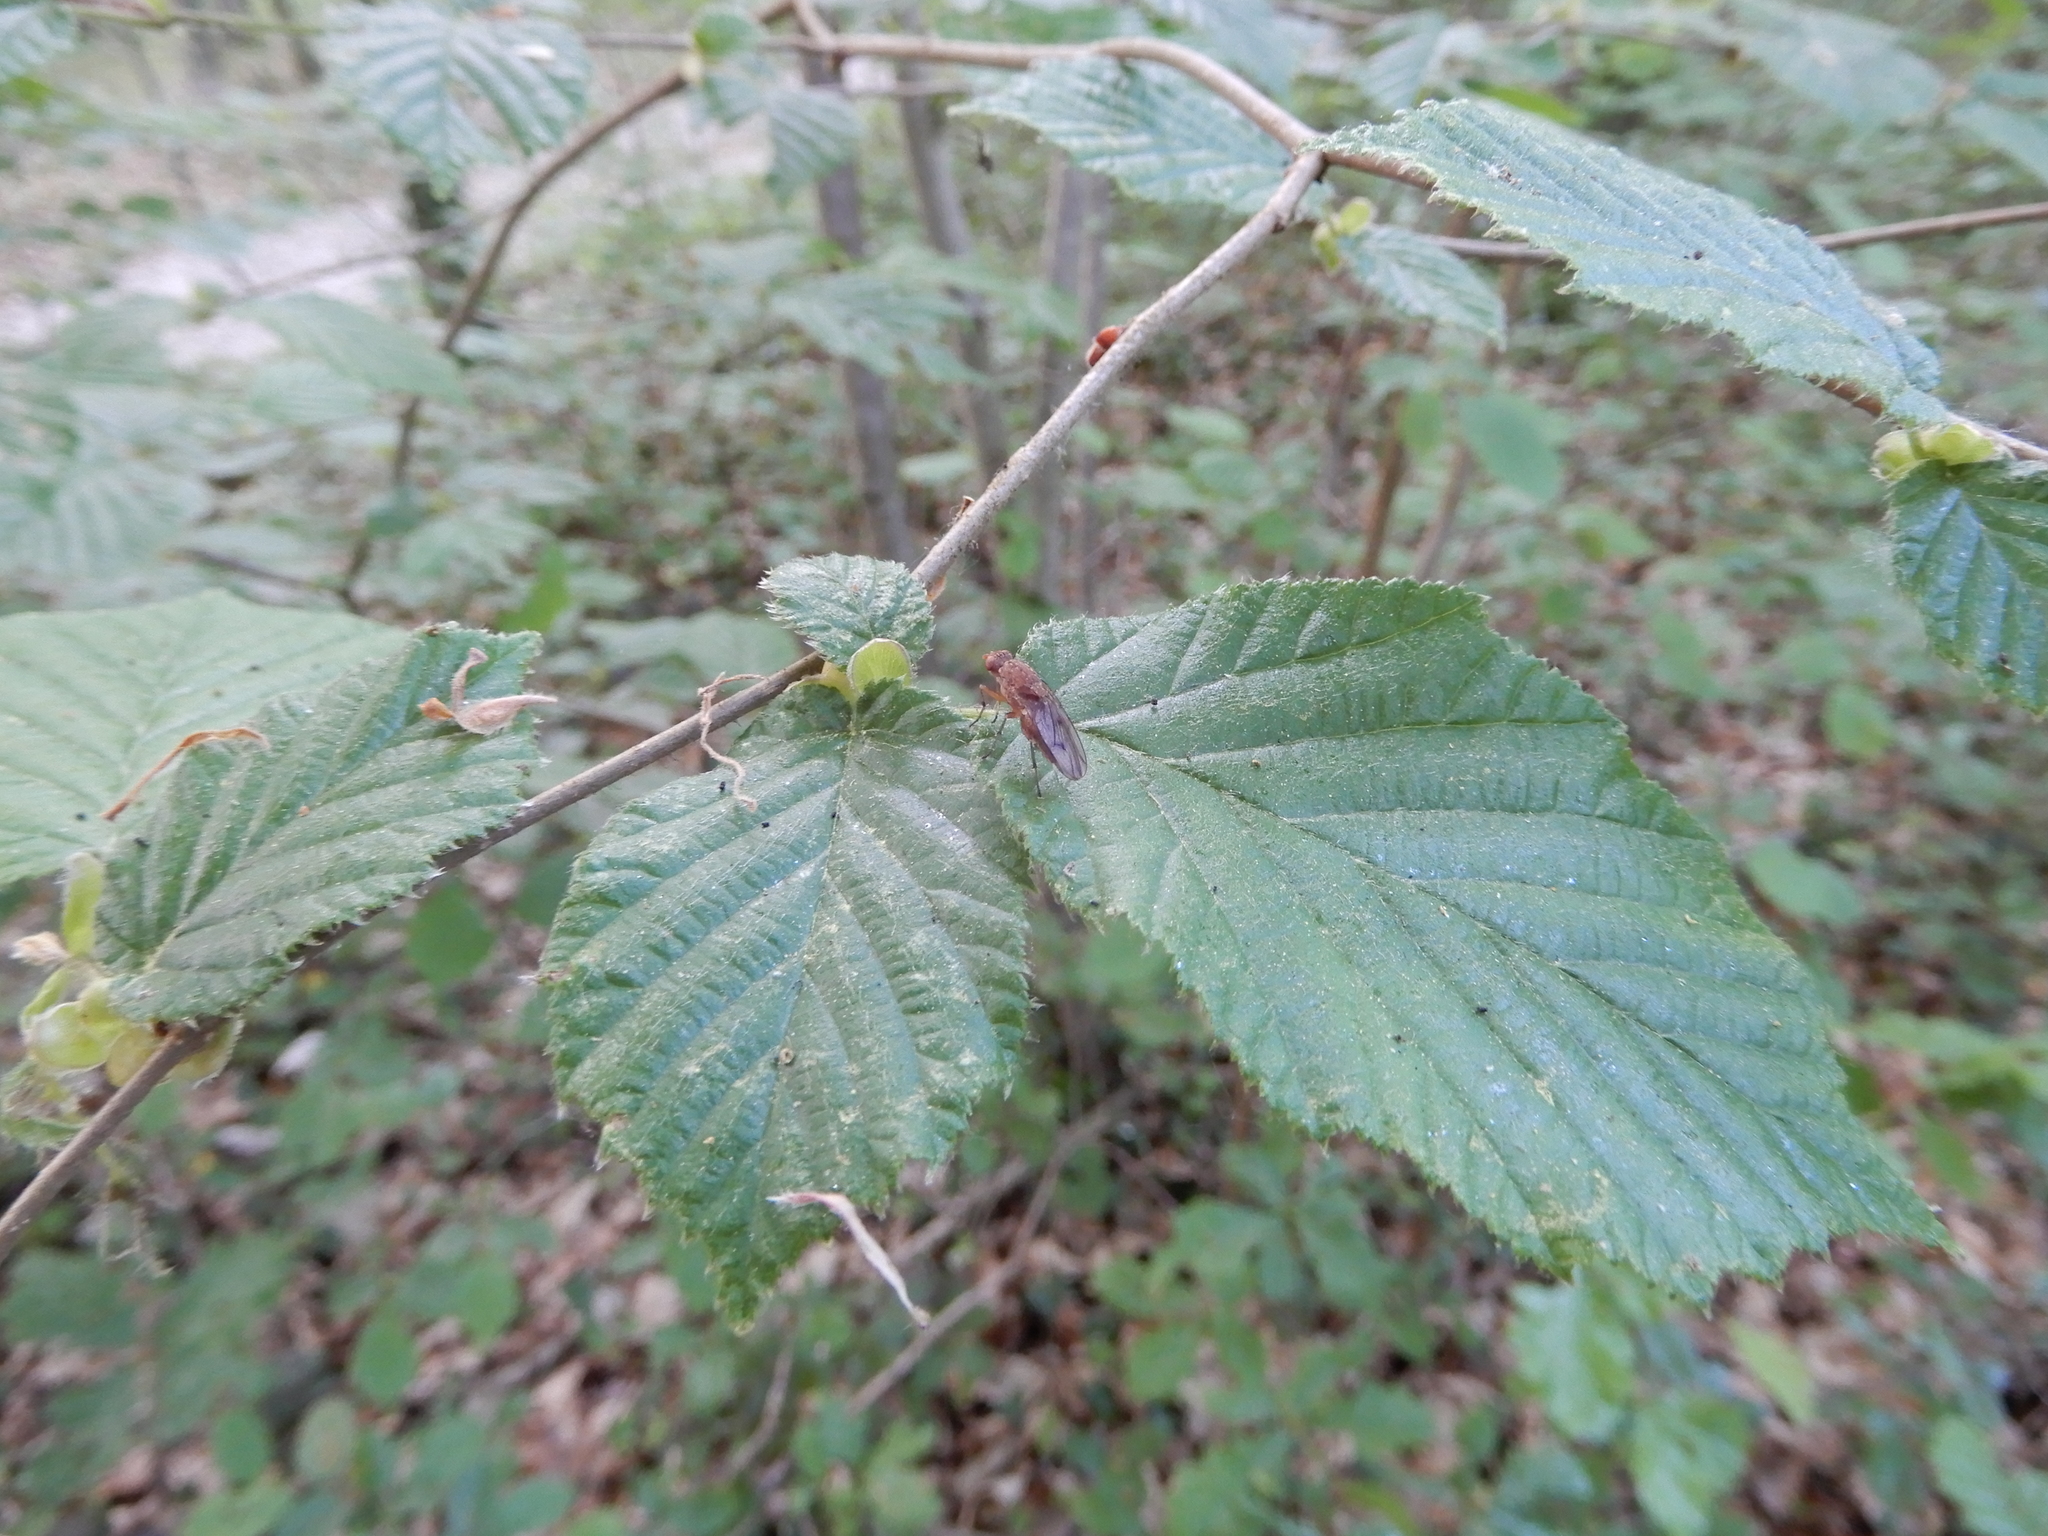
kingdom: Plantae
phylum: Tracheophyta
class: Magnoliopsida
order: Fagales
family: Betulaceae
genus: Corylus
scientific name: Corylus avellana
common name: European hazel
